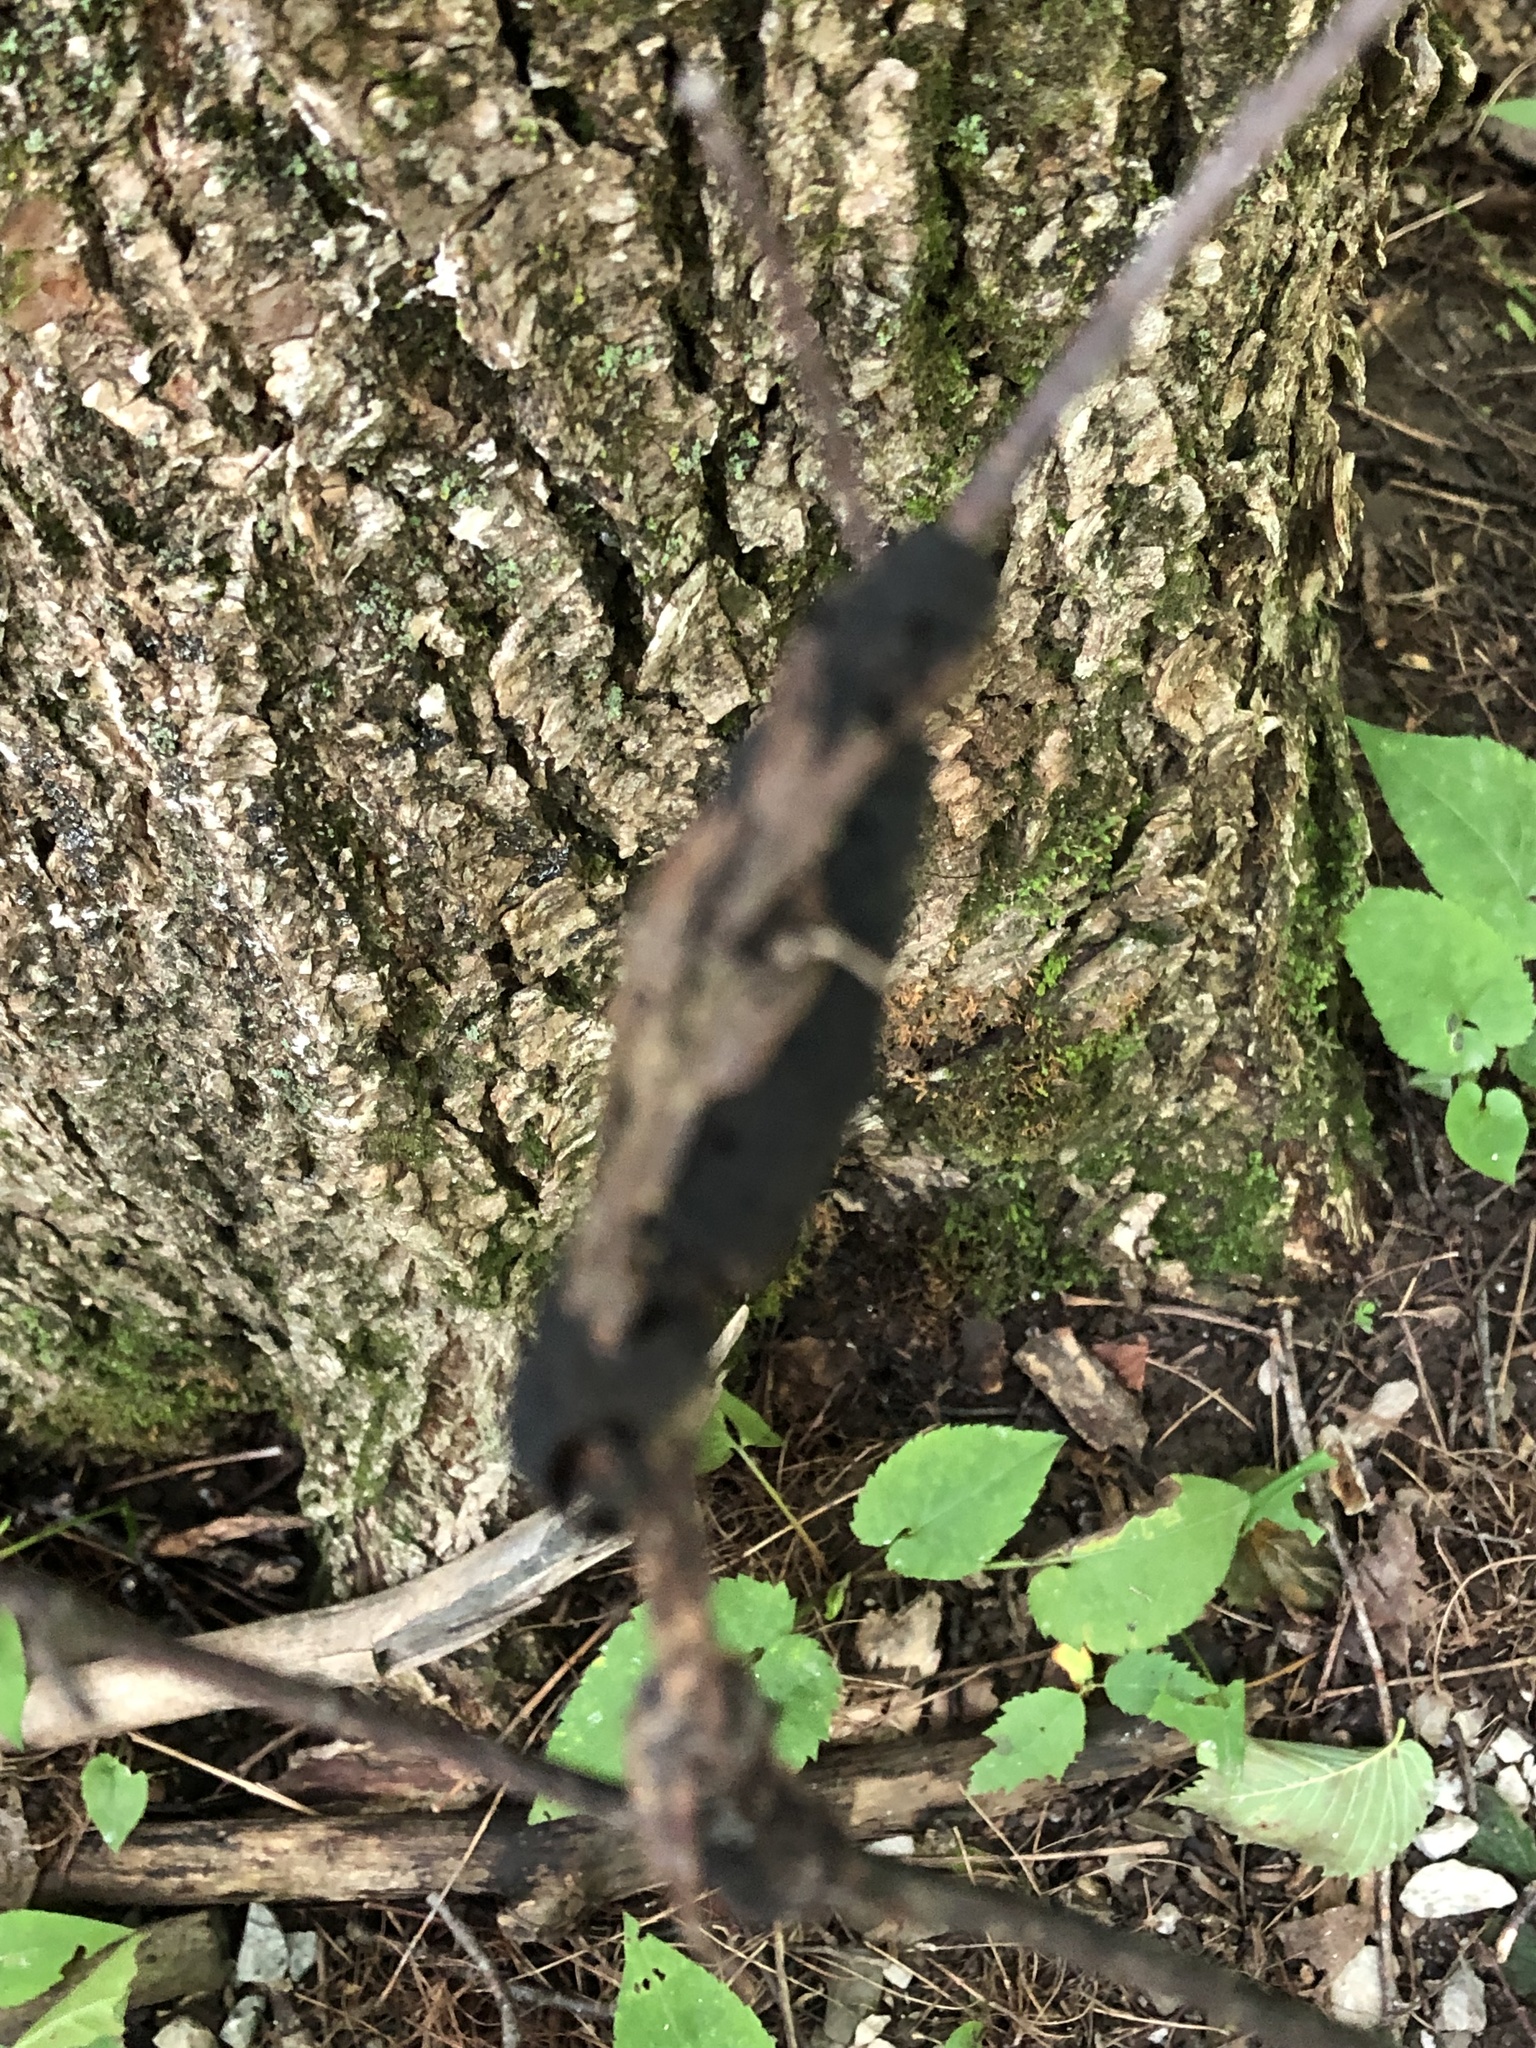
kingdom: Fungi
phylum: Ascomycota
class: Dothideomycetes
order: Venturiales
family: Venturiaceae
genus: Apiosporina
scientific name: Apiosporina morbosa
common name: Black knot
